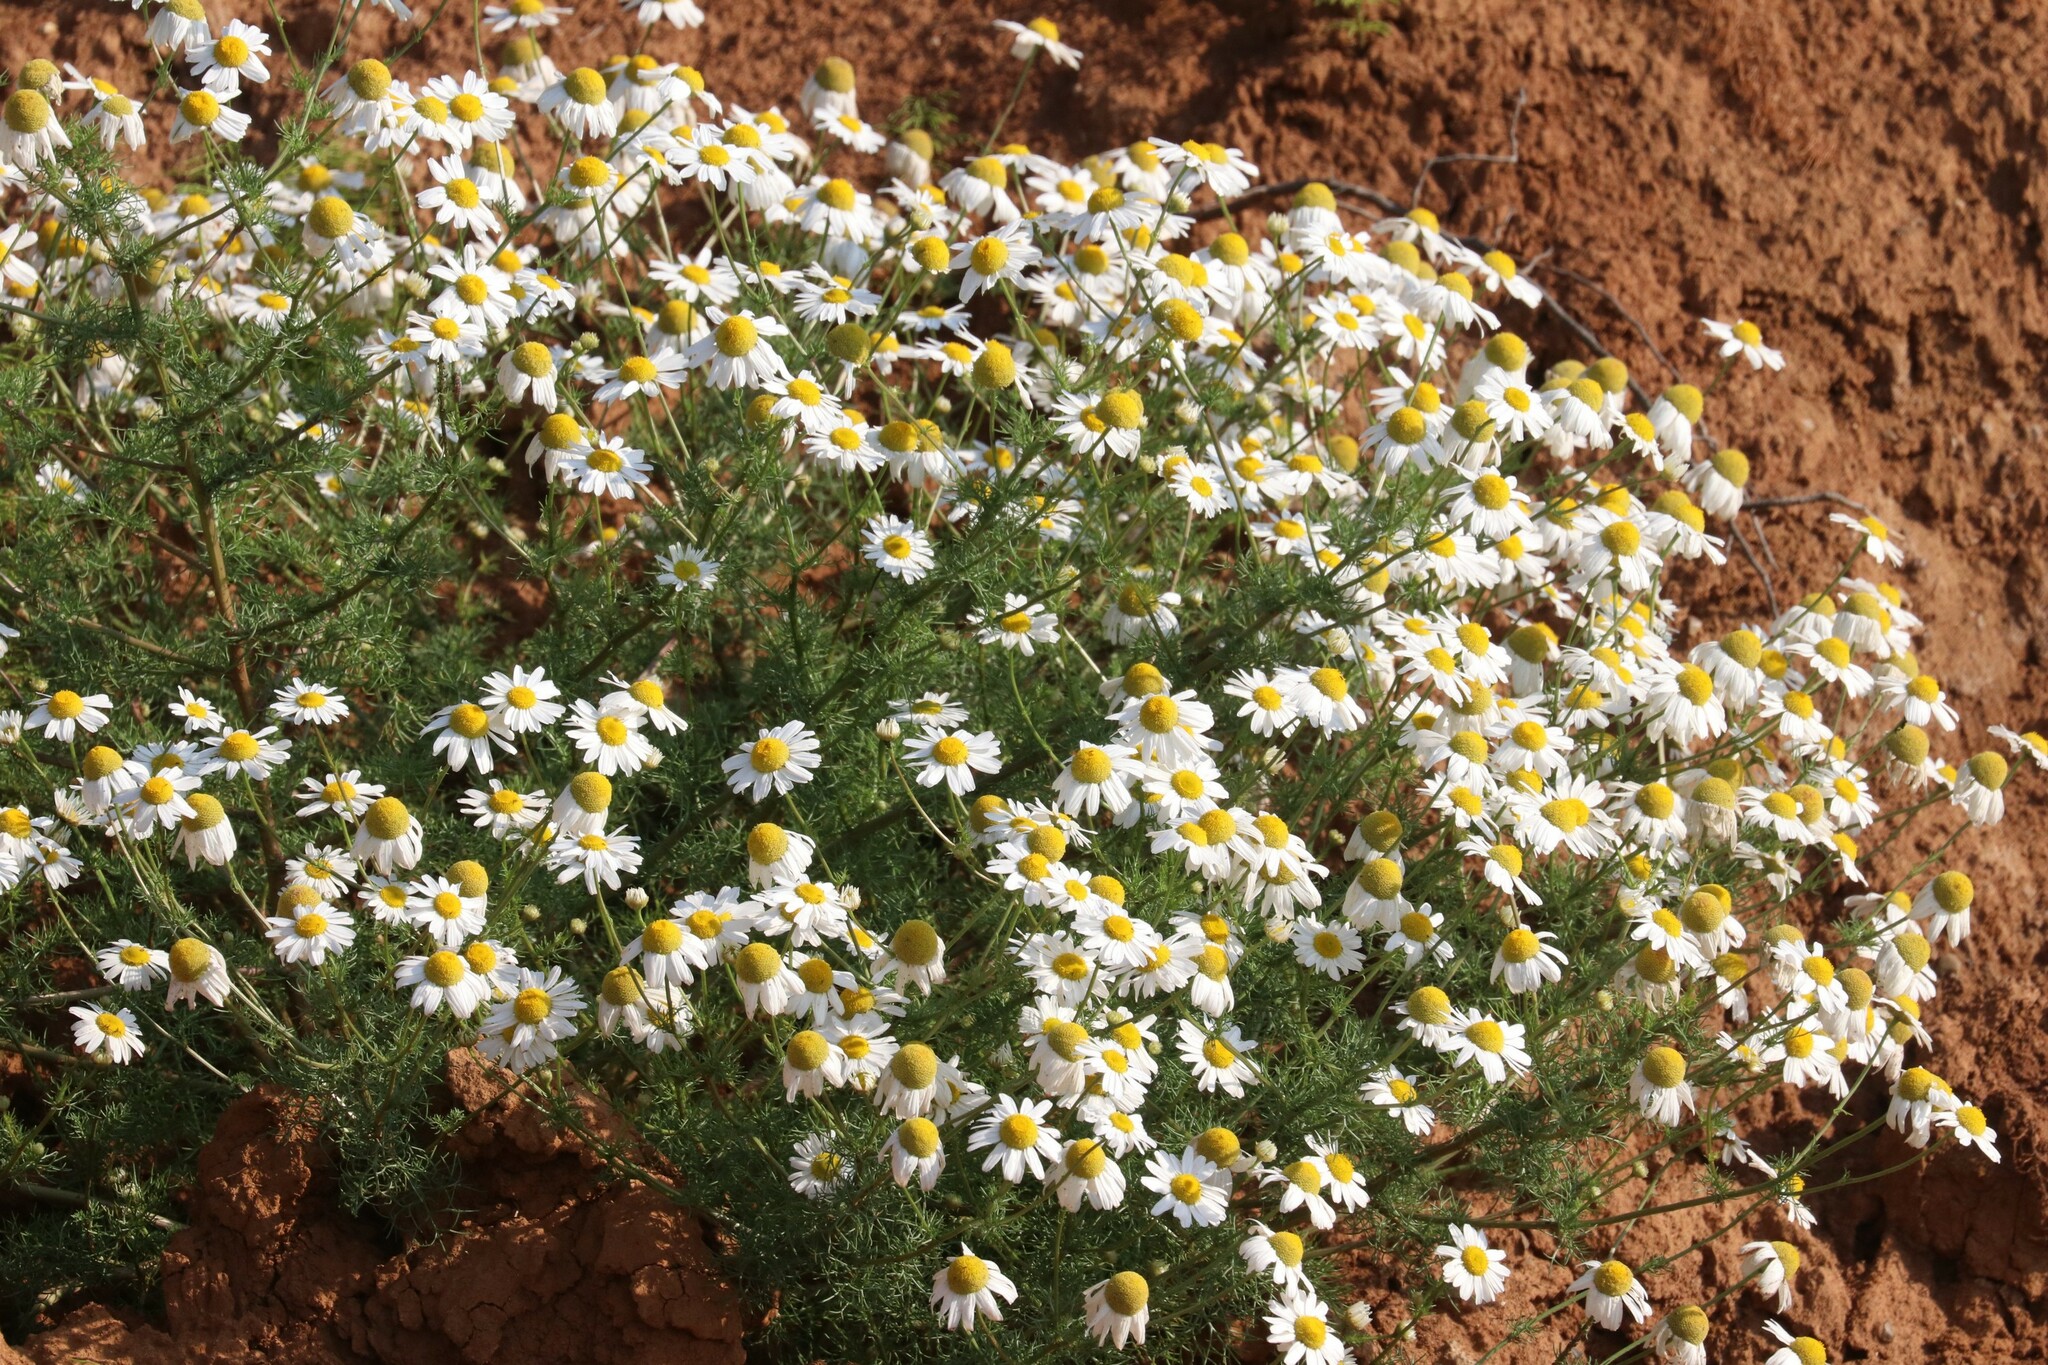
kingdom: Plantae
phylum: Tracheophyta
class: Magnoliopsida
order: Asterales
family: Asteraceae
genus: Tripleurospermum
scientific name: Tripleurospermum inodorum
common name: Scentless mayweed
